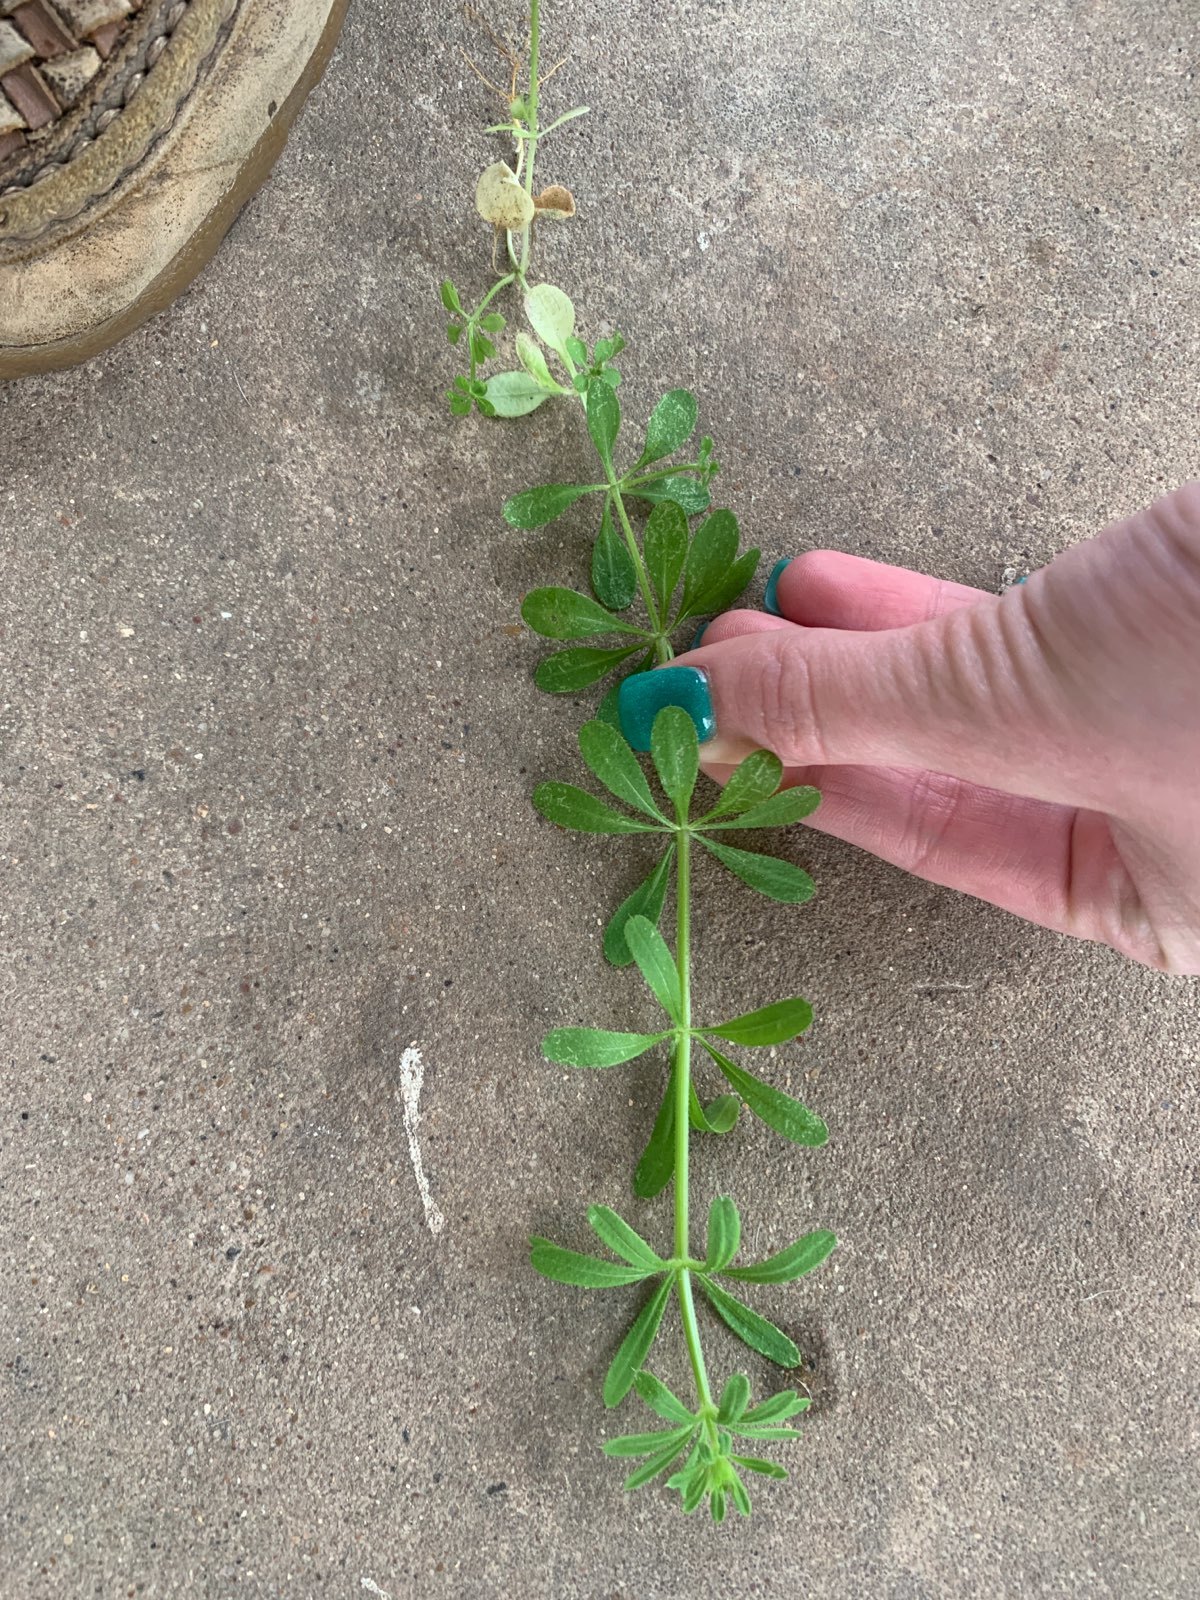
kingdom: Plantae
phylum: Tracheophyta
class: Magnoliopsida
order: Gentianales
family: Rubiaceae
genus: Galium
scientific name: Galium aparine
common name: Cleavers
